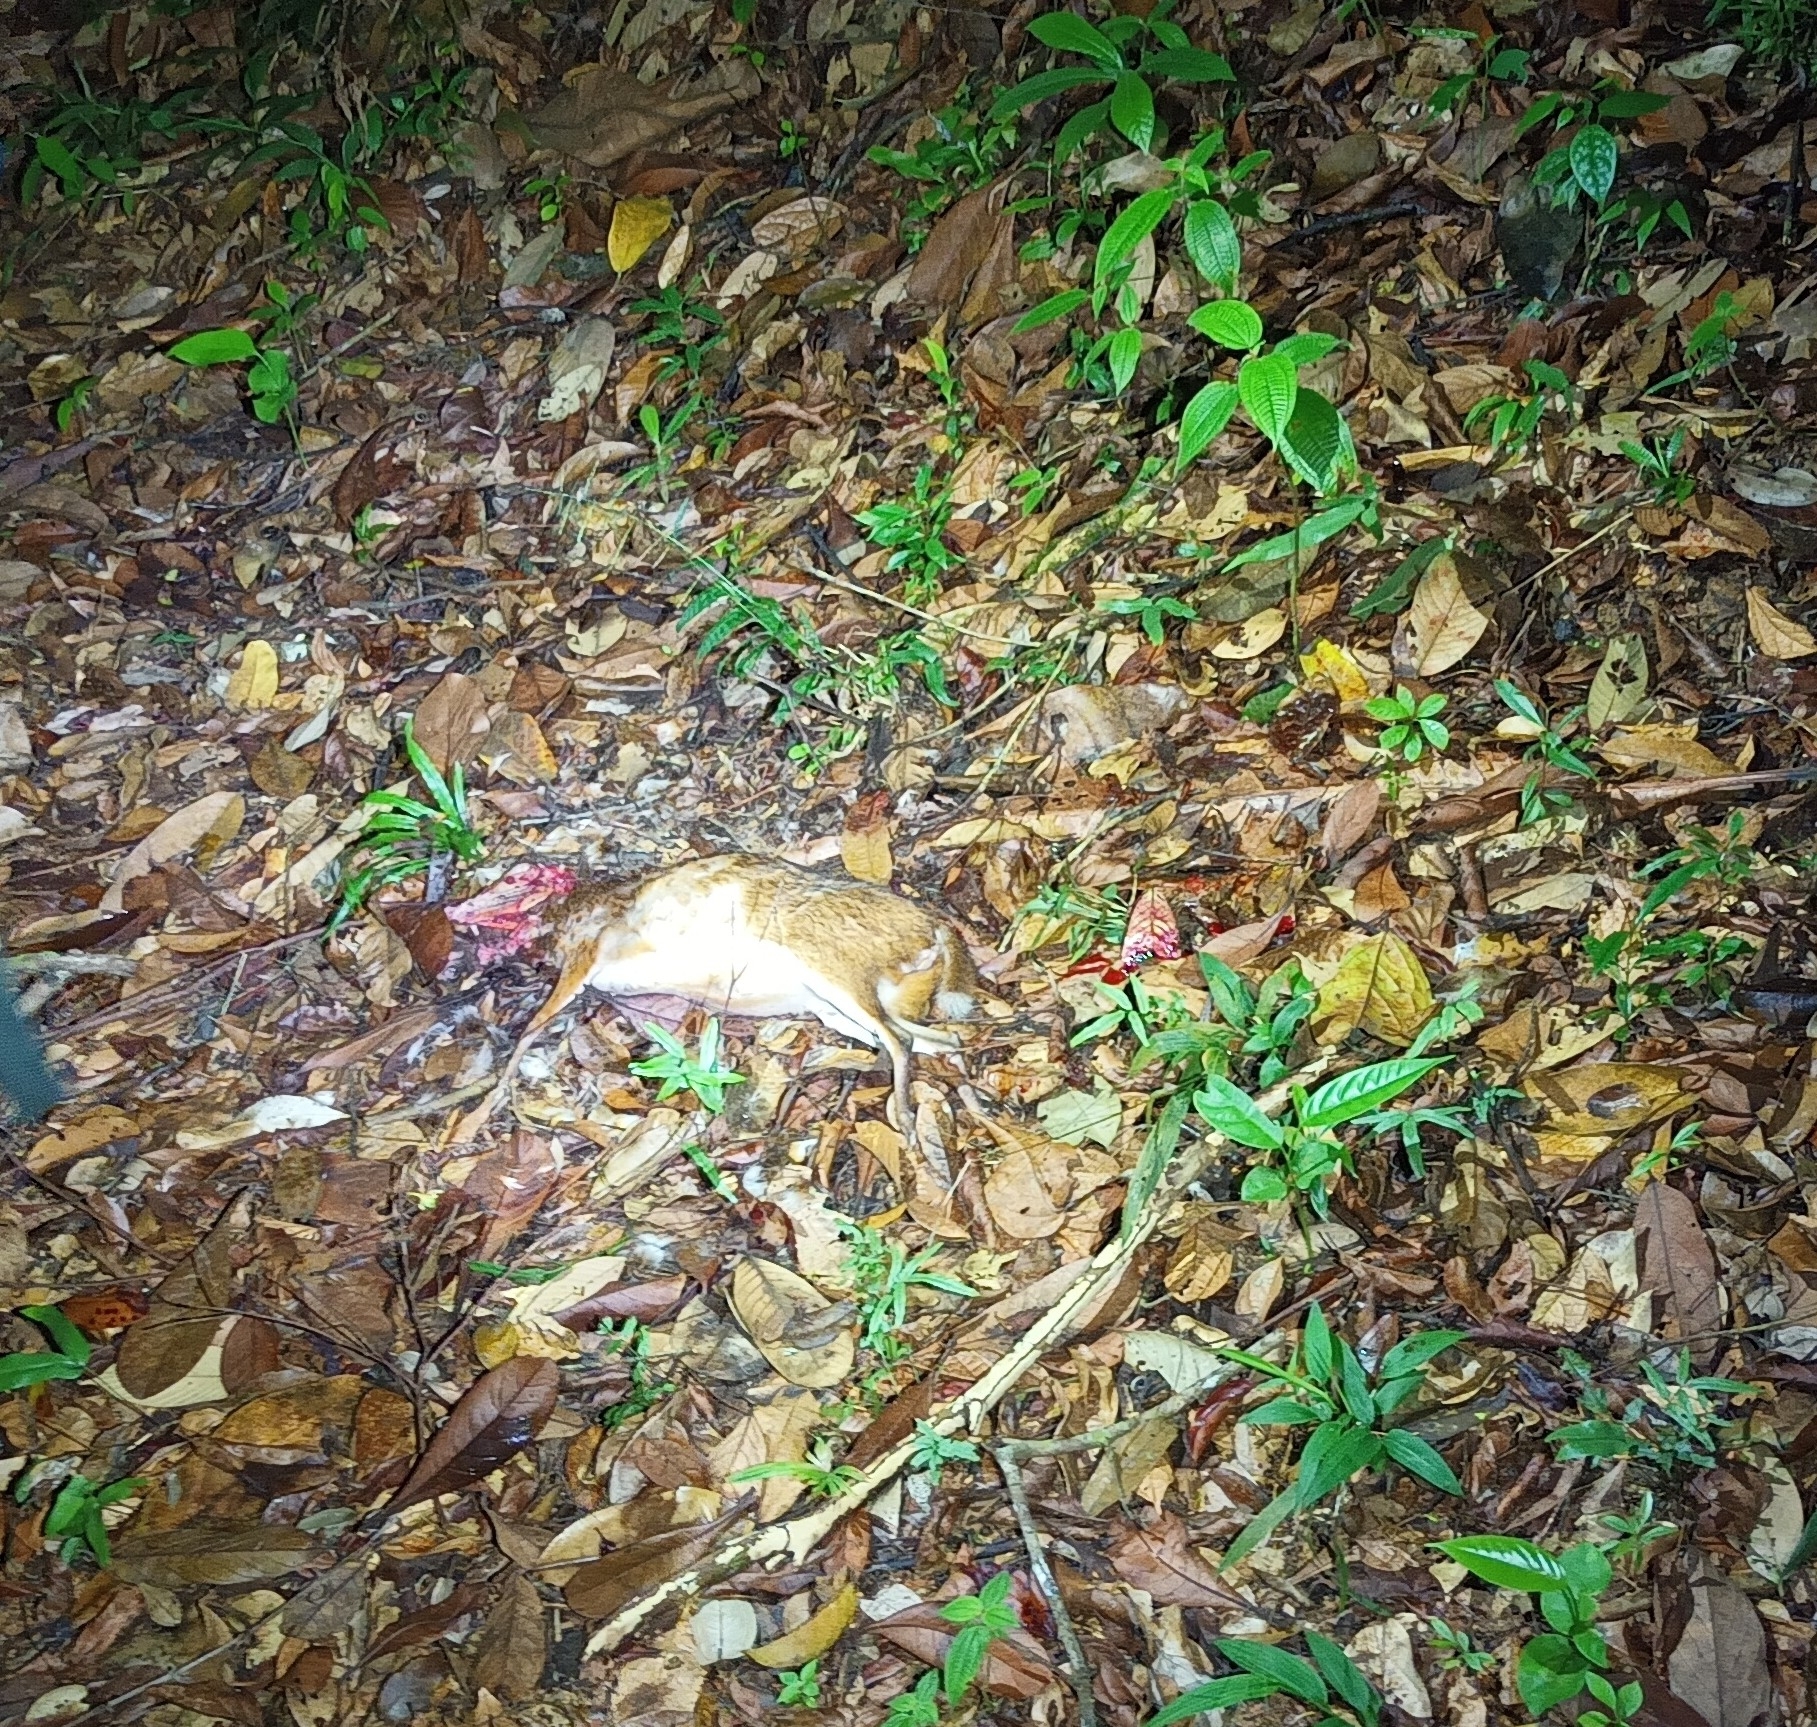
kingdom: Animalia
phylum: Chordata
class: Mammalia
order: Artiodactyla
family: Tragulidae
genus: Tragulus
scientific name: Tragulus kanchil
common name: Lesser mouse-deer
